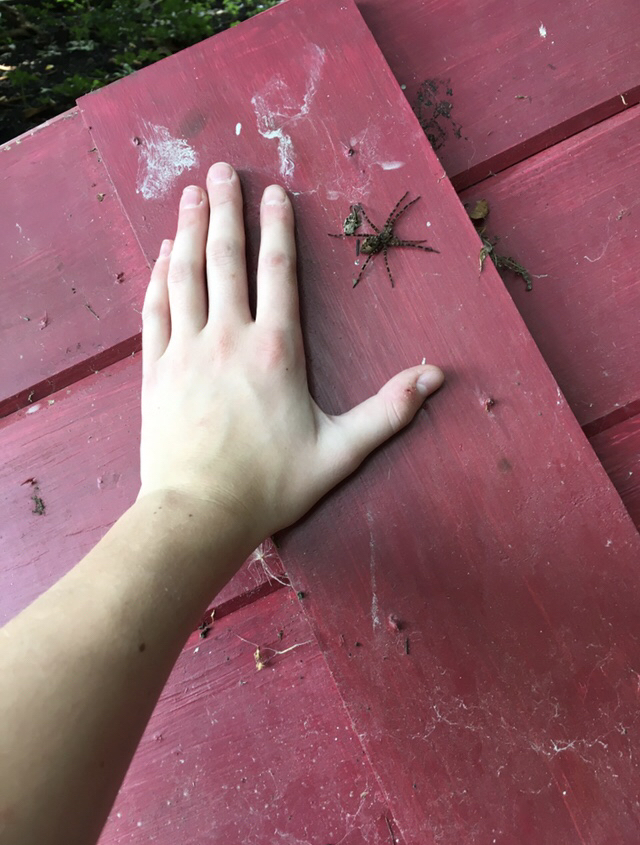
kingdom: Animalia
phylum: Arthropoda
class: Arachnida
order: Araneae
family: Pisauridae
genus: Dolomedes
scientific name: Dolomedes tenebrosus
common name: Dark fishing spider
